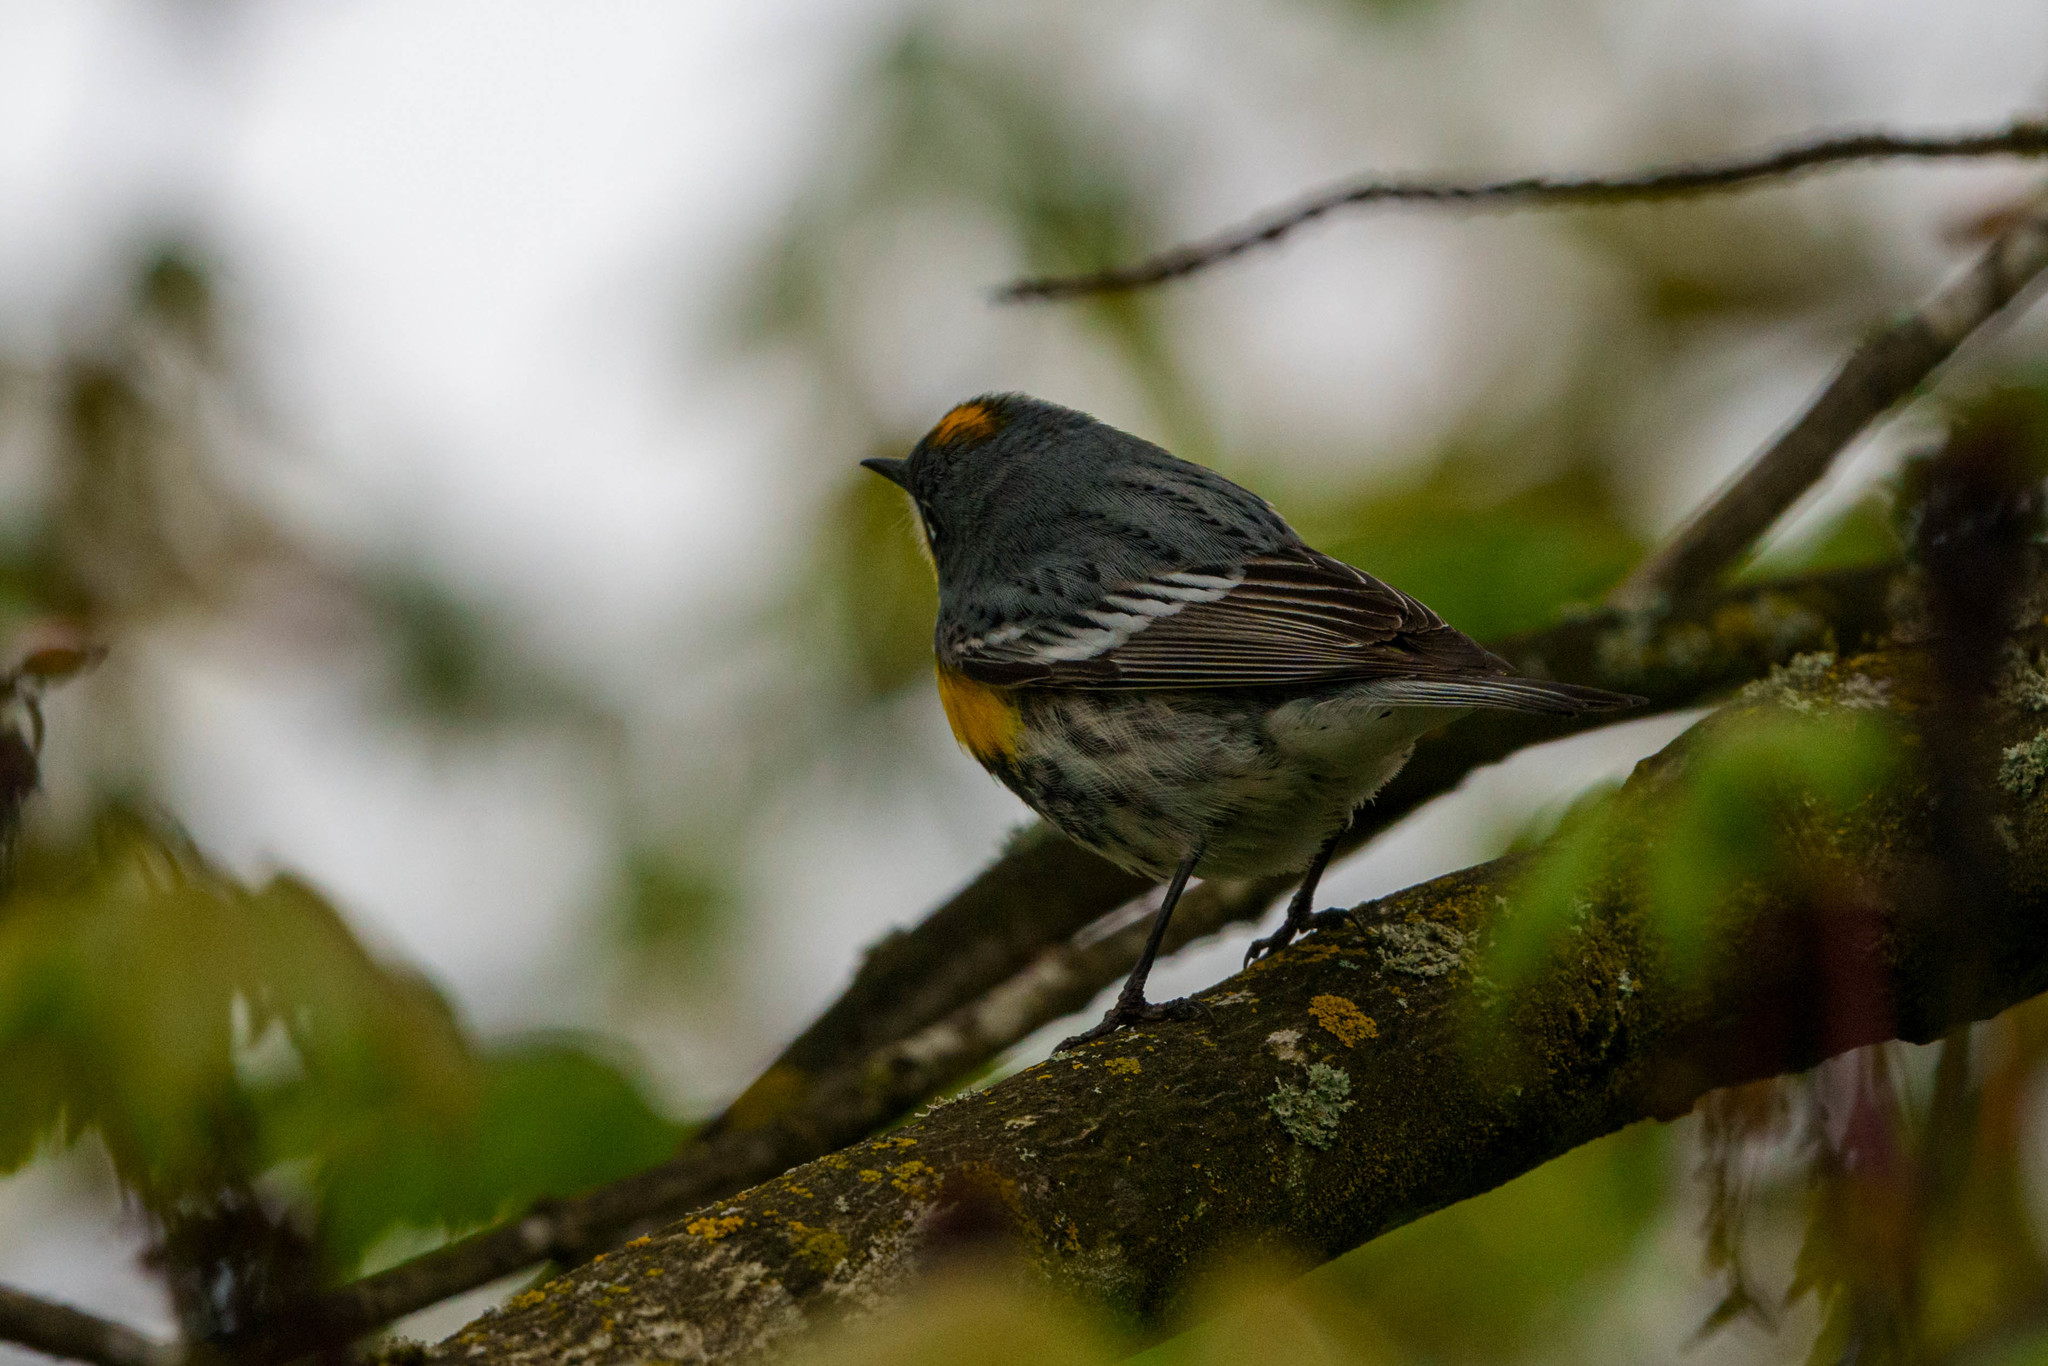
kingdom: Animalia
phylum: Chordata
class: Aves
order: Passeriformes
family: Parulidae
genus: Setophaga
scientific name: Setophaga auduboni
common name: Audubon's warbler
